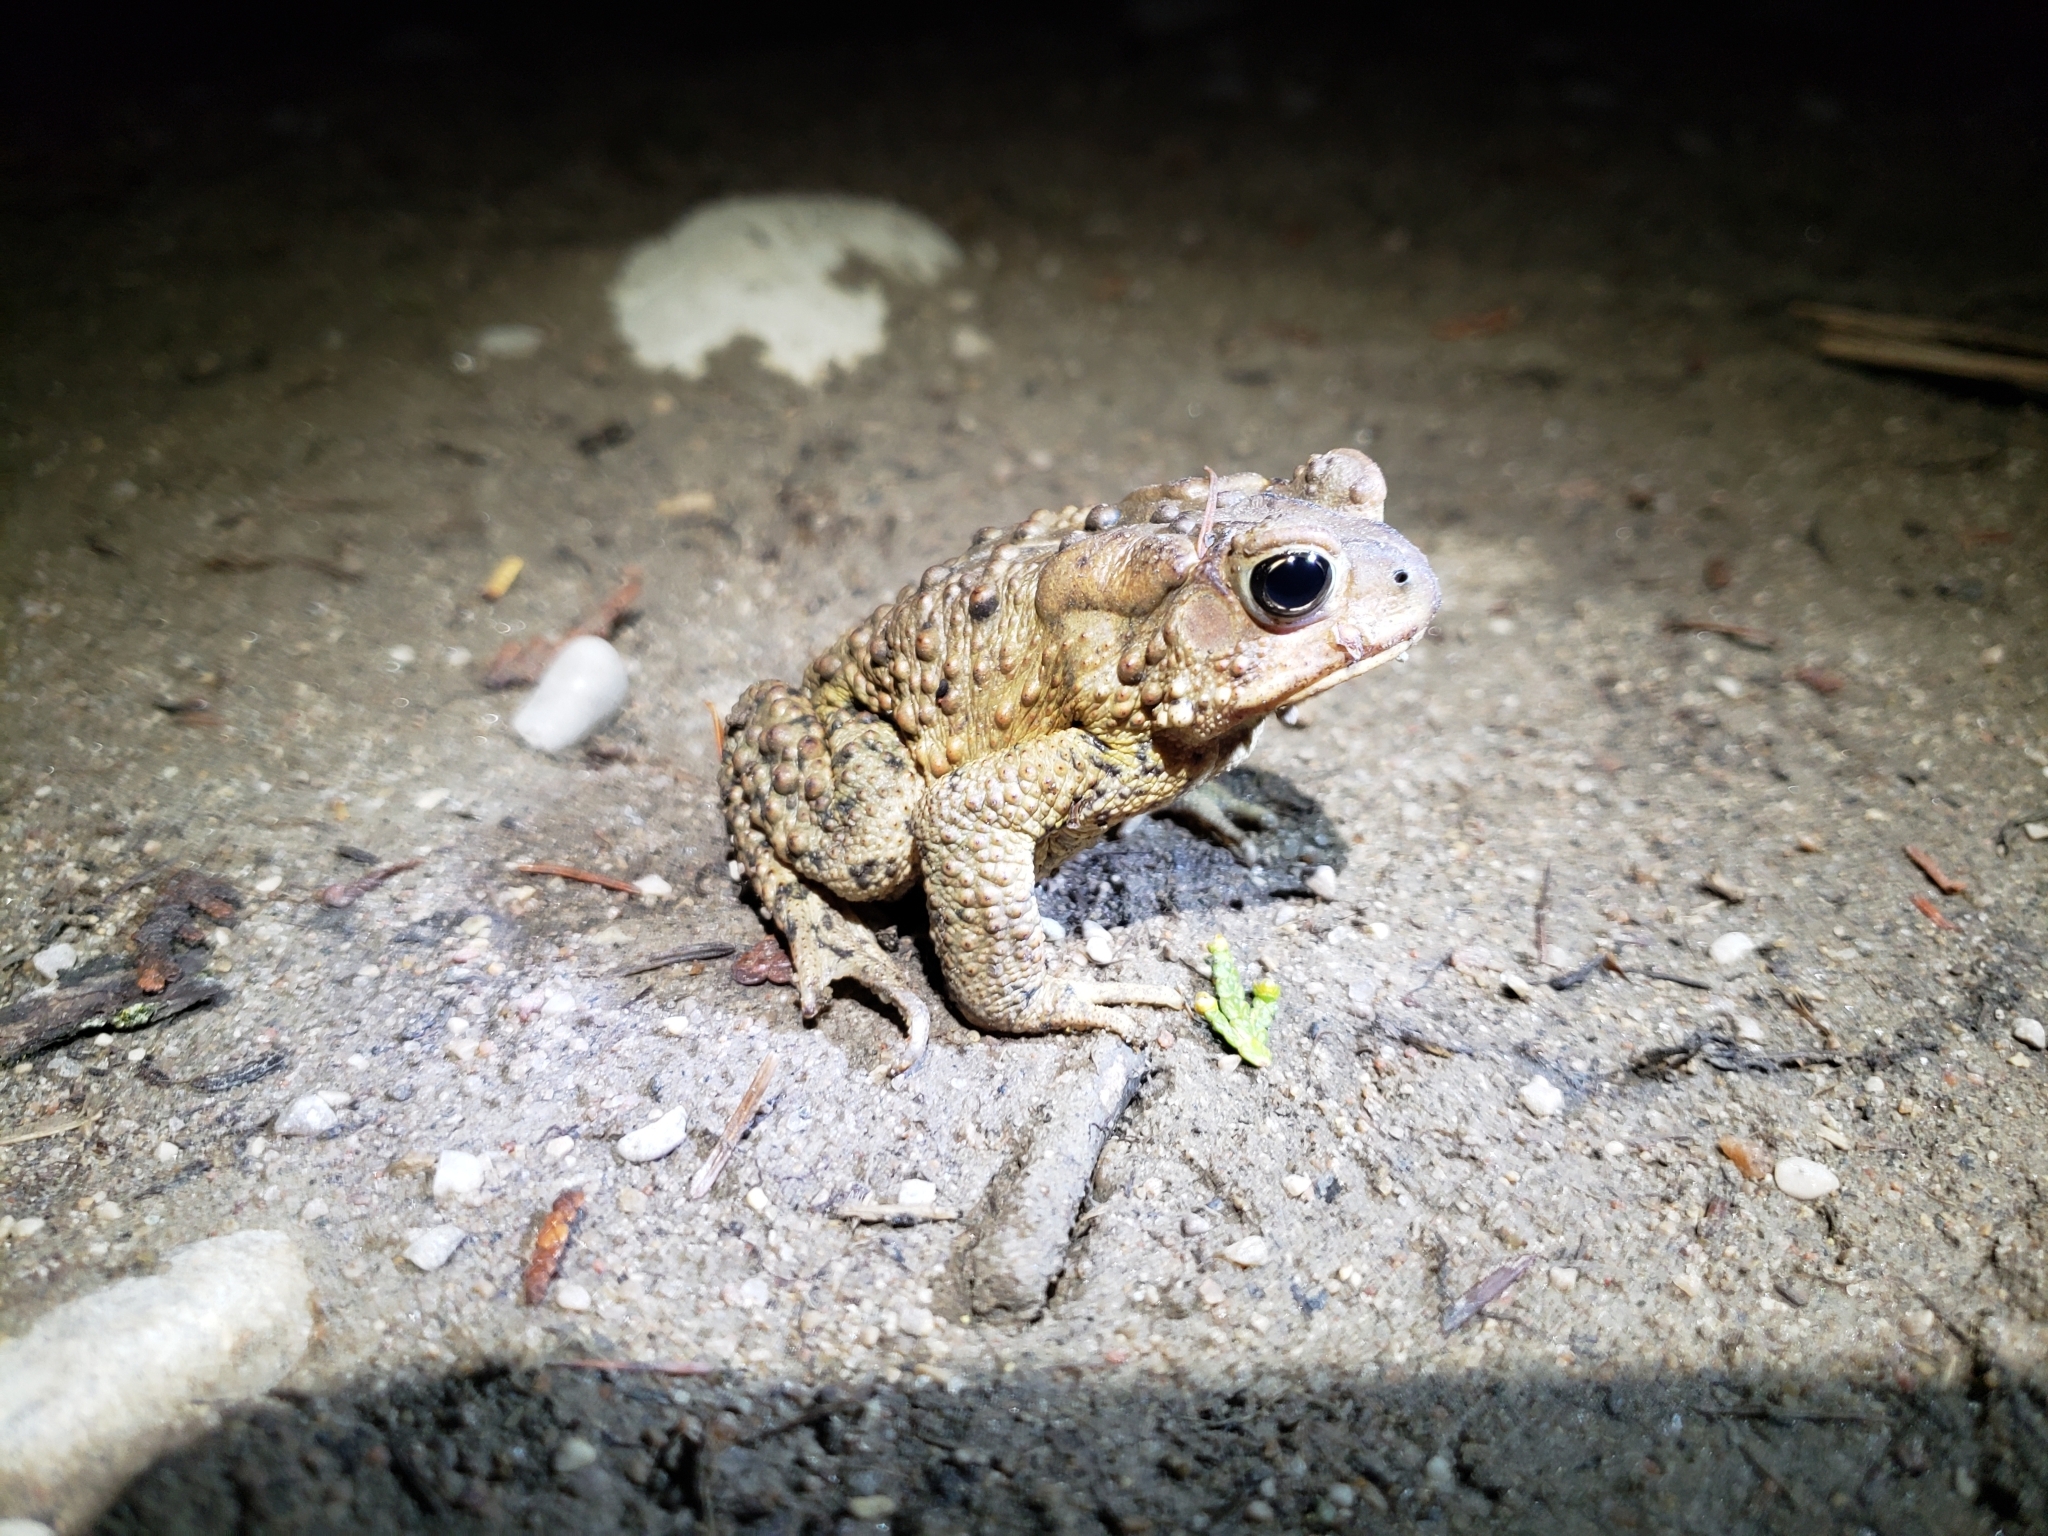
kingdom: Animalia
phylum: Chordata
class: Amphibia
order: Anura
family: Bufonidae
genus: Anaxyrus
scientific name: Anaxyrus americanus
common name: American toad
